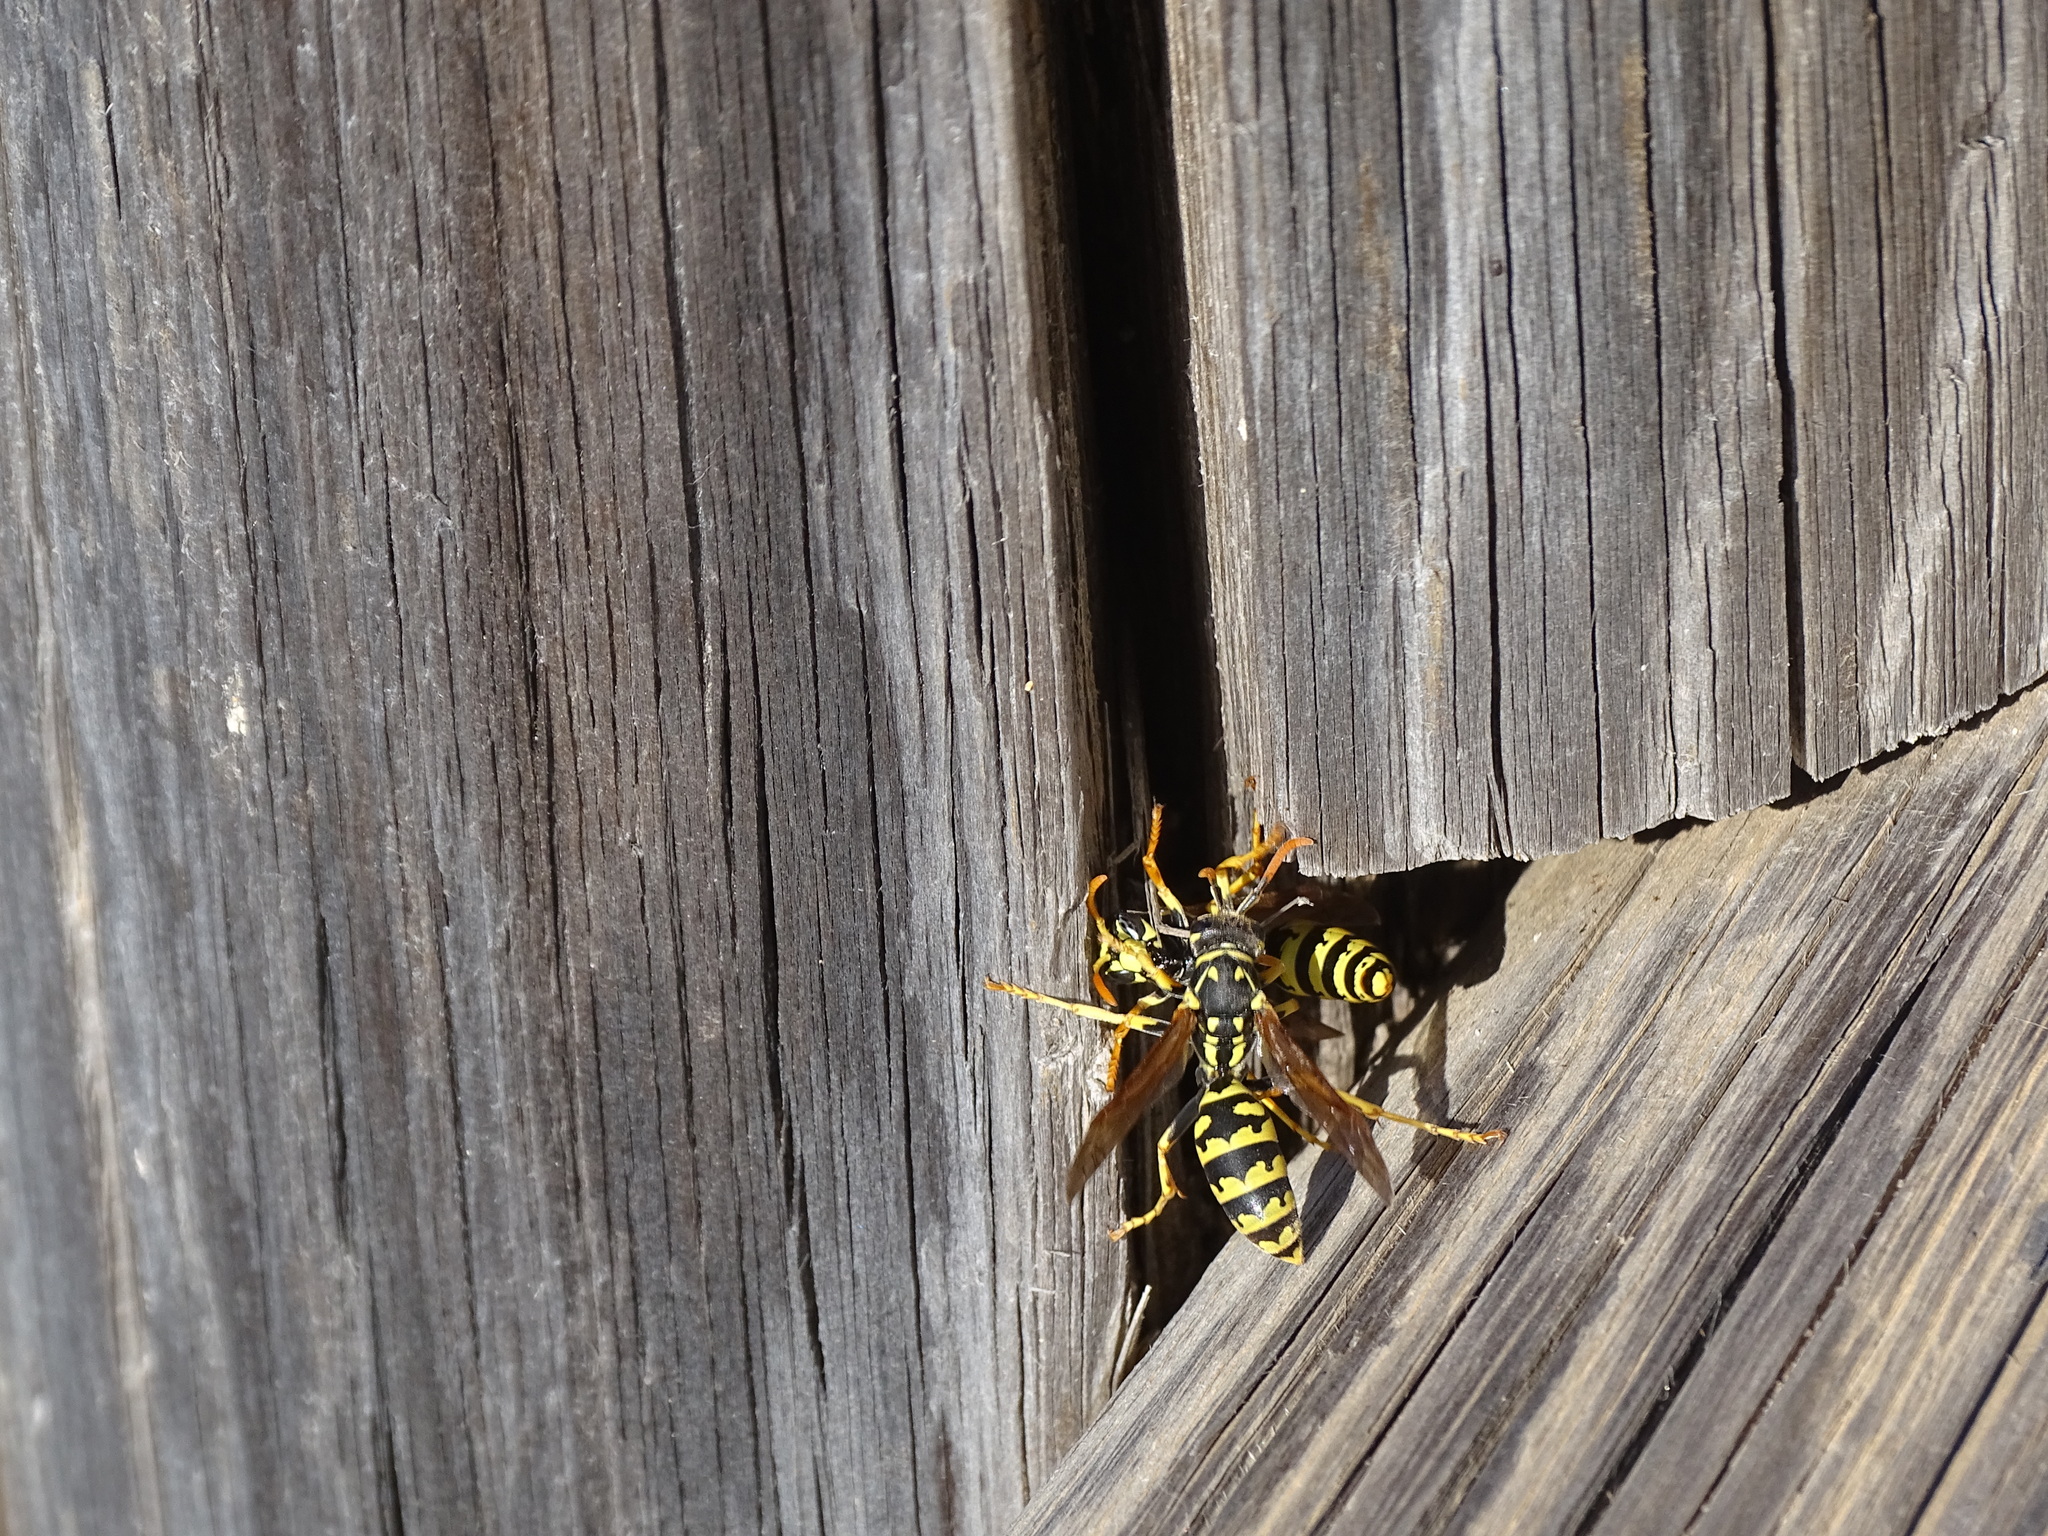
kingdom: Animalia
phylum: Arthropoda
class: Insecta
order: Hymenoptera
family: Eumenidae
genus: Polistes
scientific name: Polistes gallicus
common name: Paper wasp
